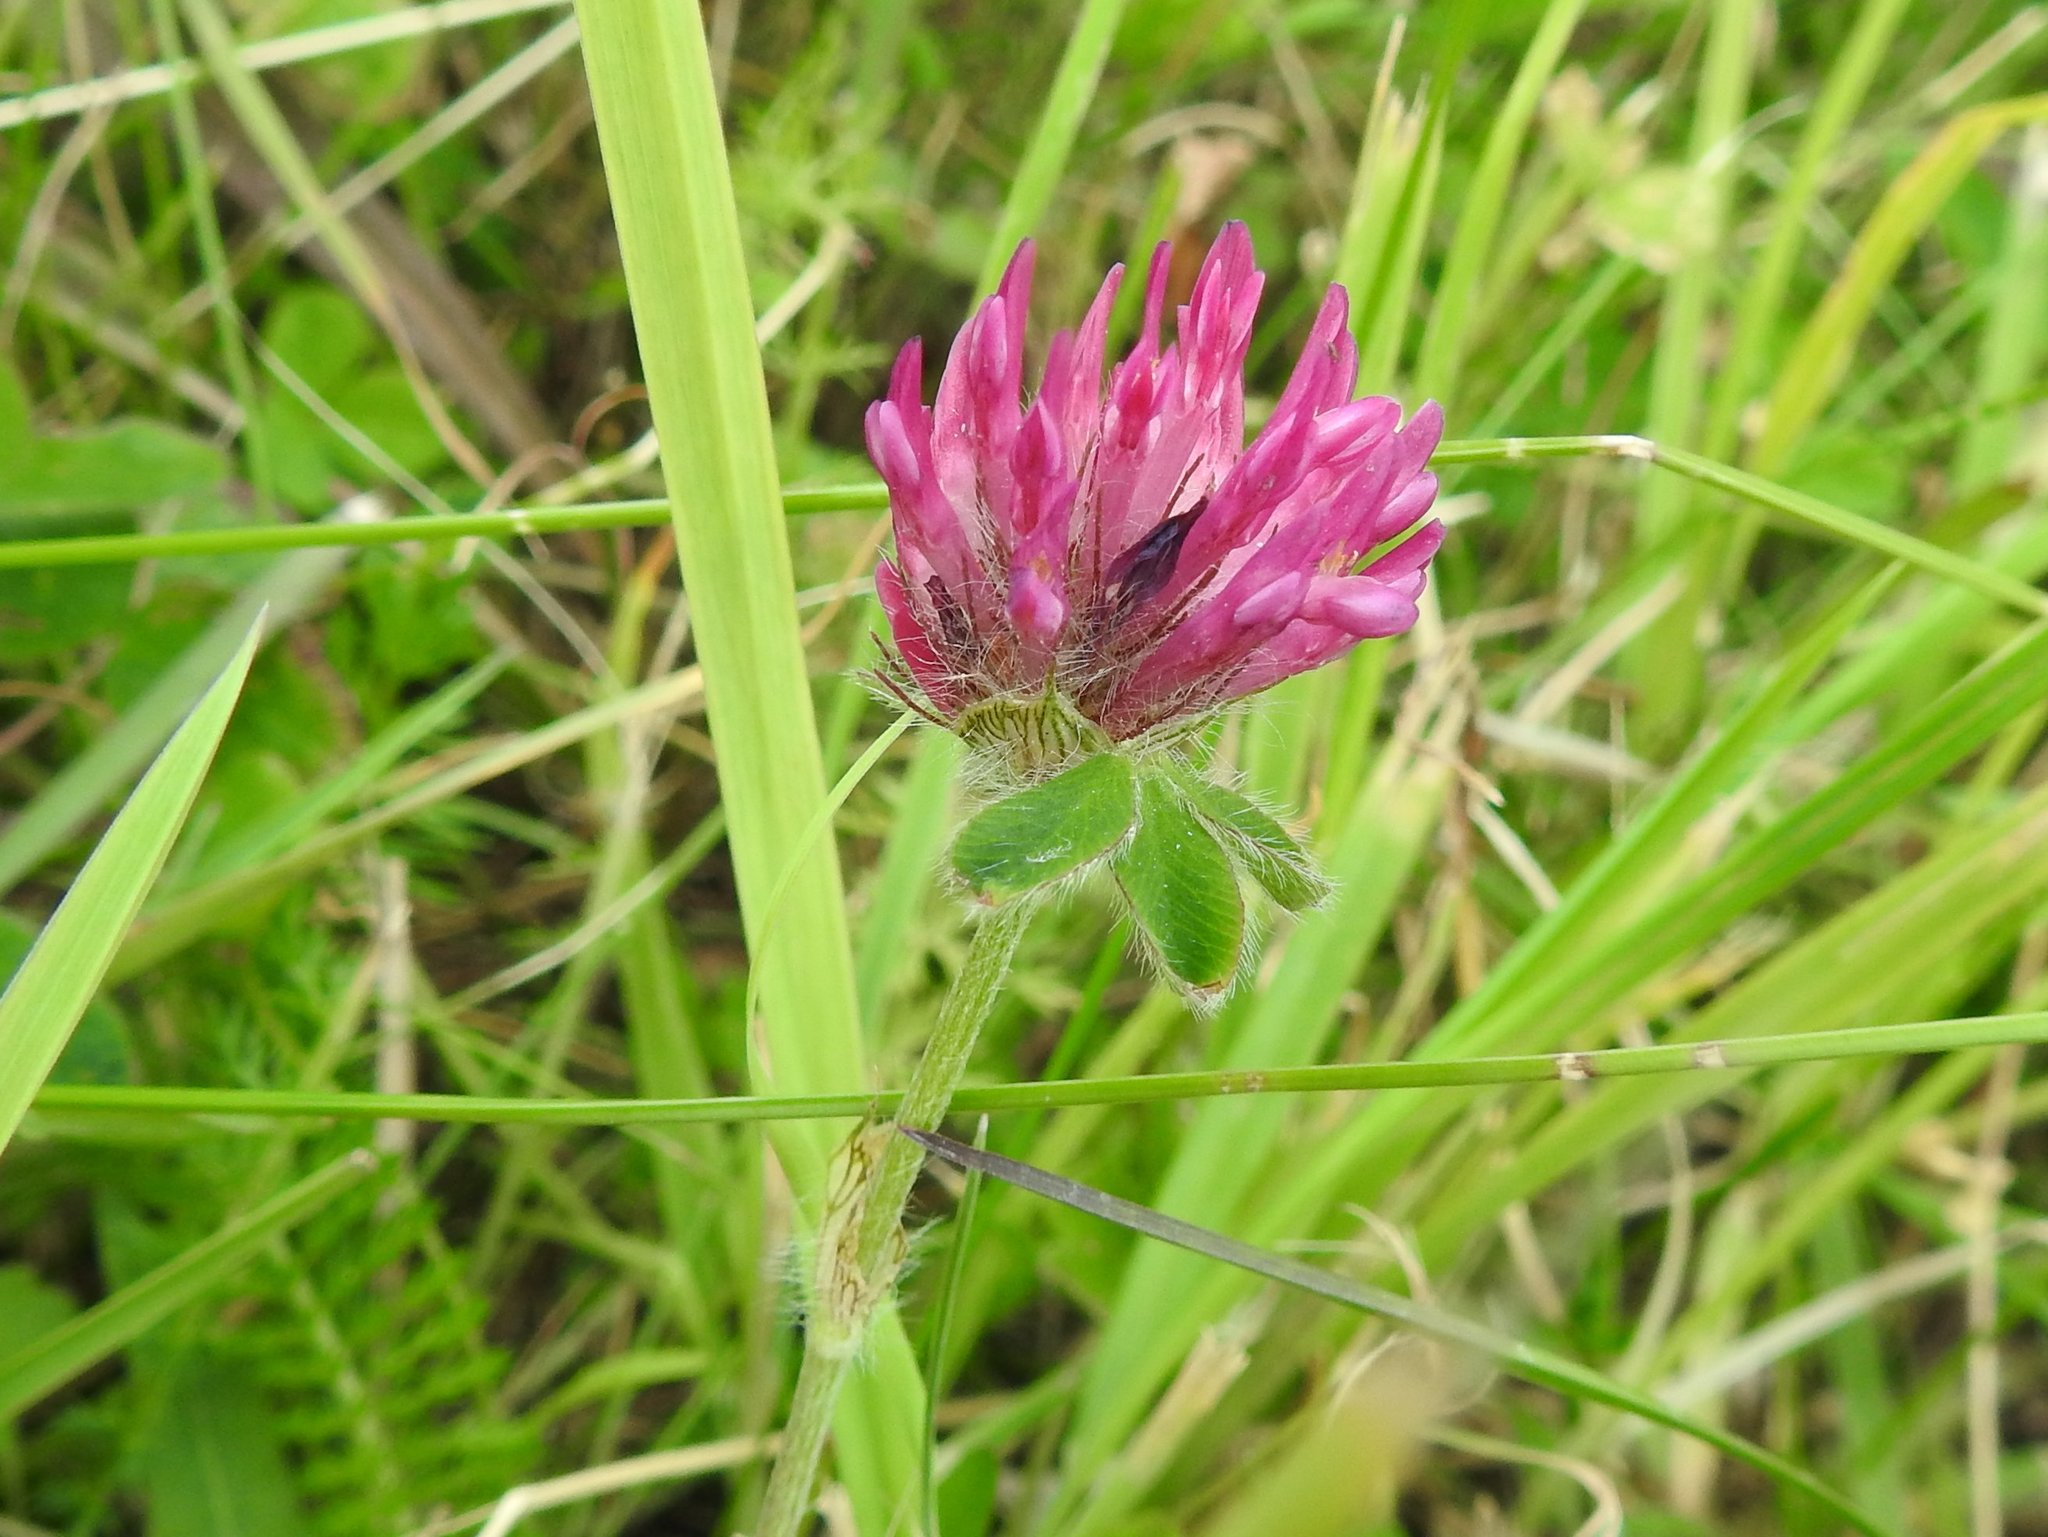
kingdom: Plantae
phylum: Tracheophyta
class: Magnoliopsida
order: Fabales
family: Fabaceae
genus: Trifolium
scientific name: Trifolium pratense
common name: Red clover
